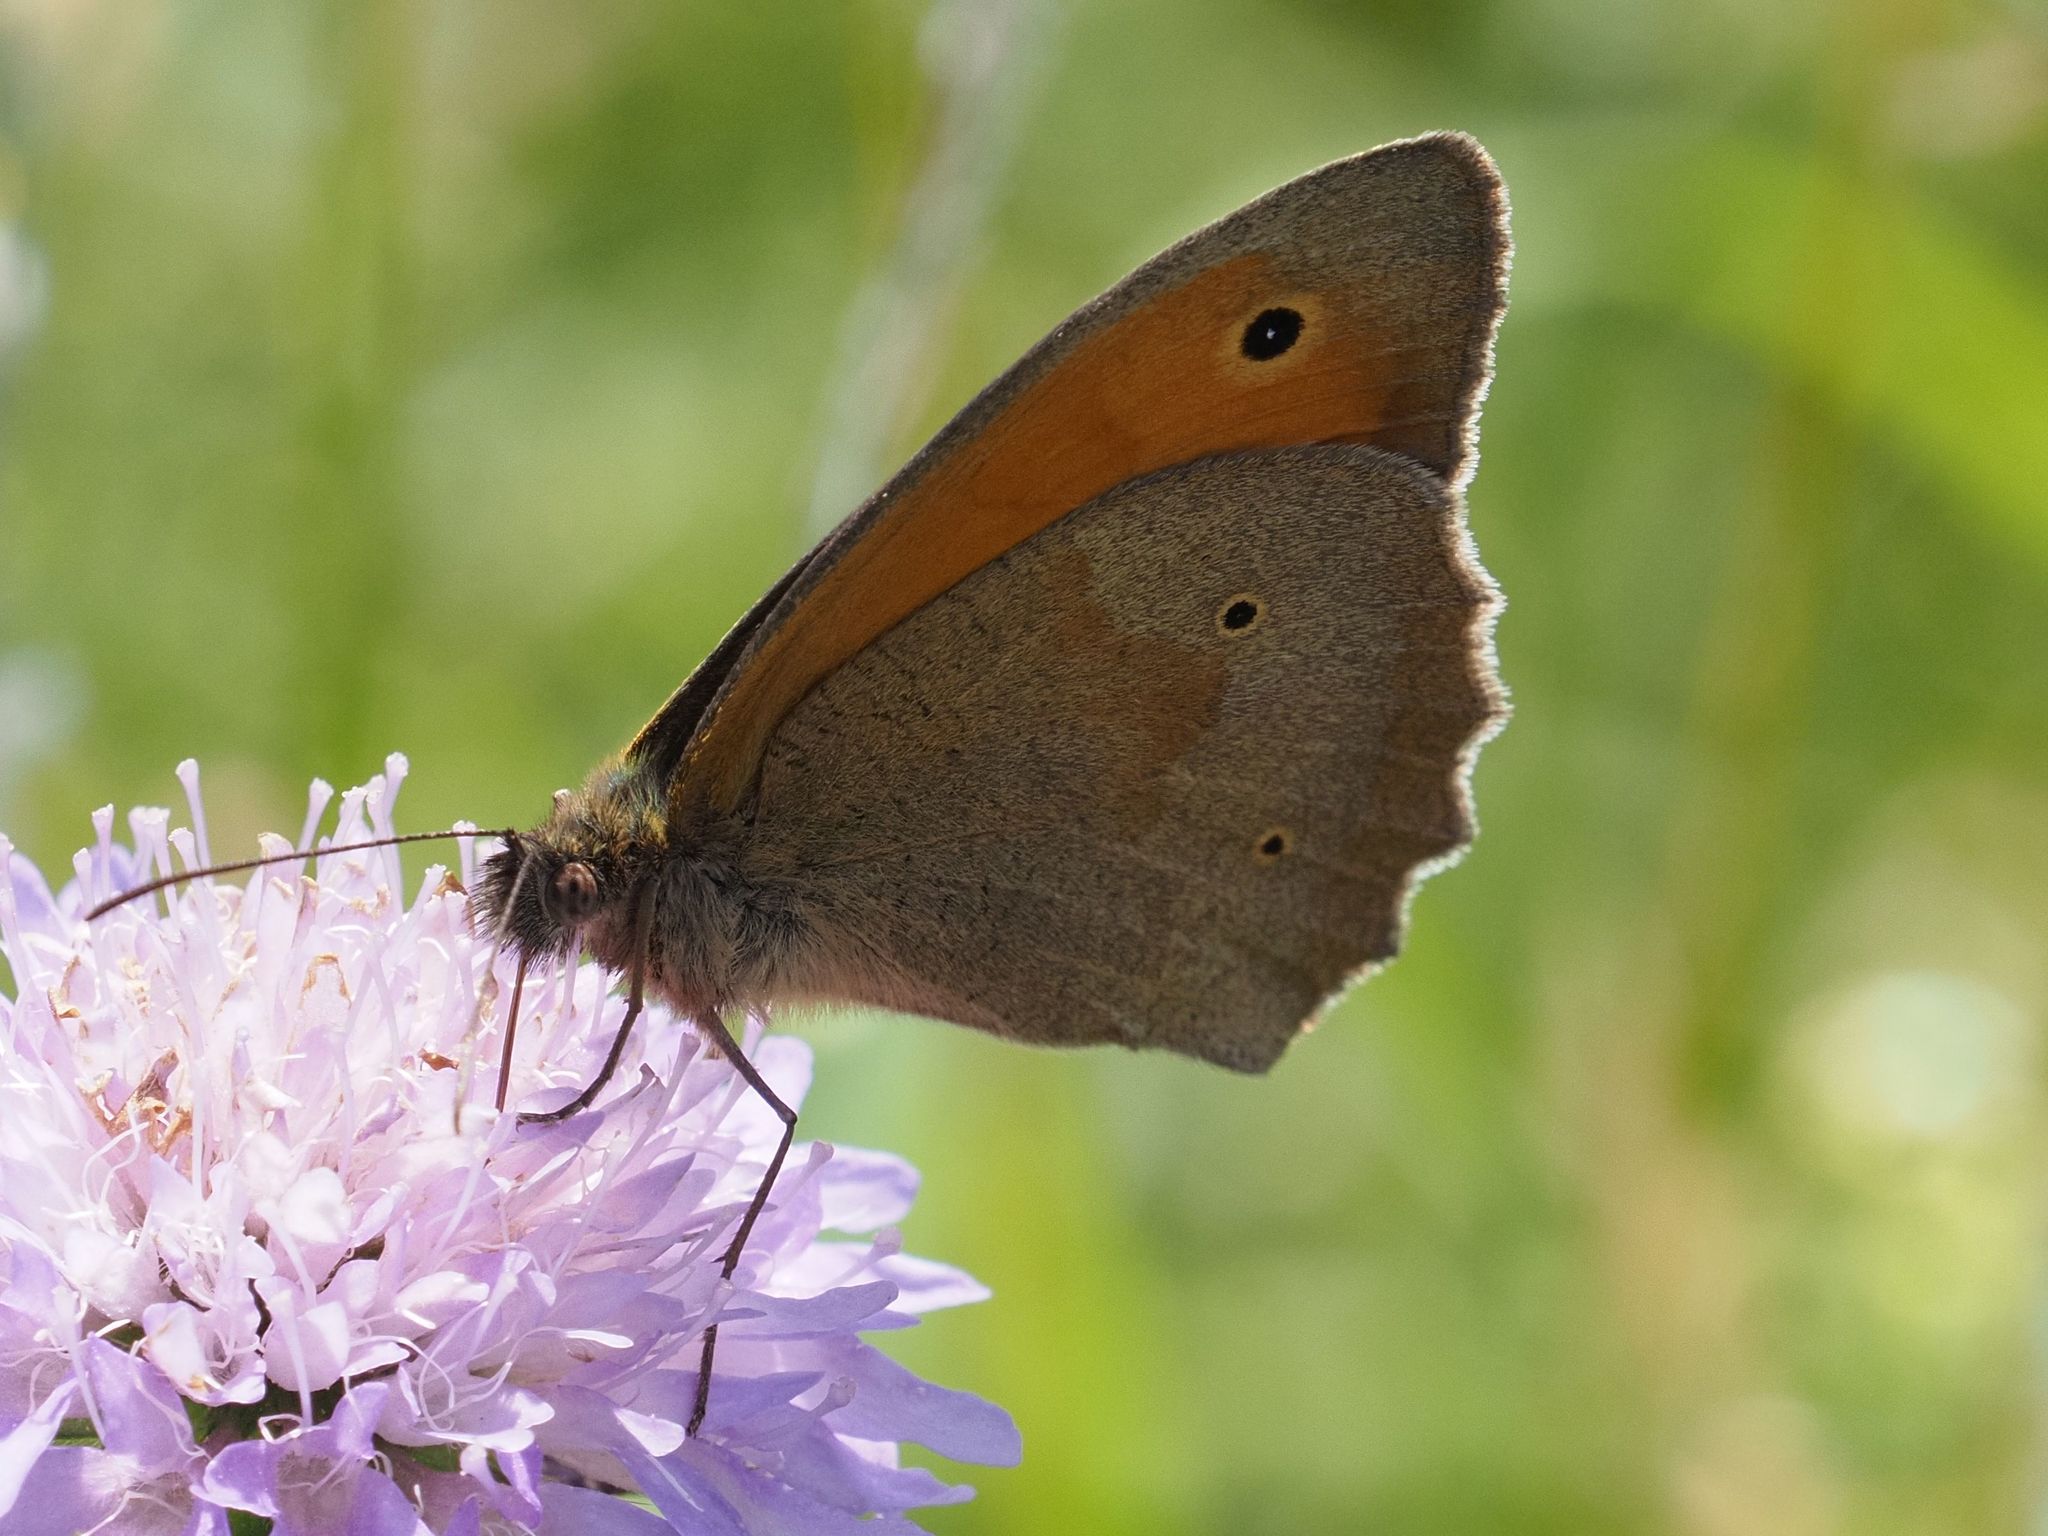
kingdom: Animalia
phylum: Arthropoda
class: Insecta
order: Lepidoptera
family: Nymphalidae
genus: Maniola
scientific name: Maniola jurtina
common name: Meadow brown
